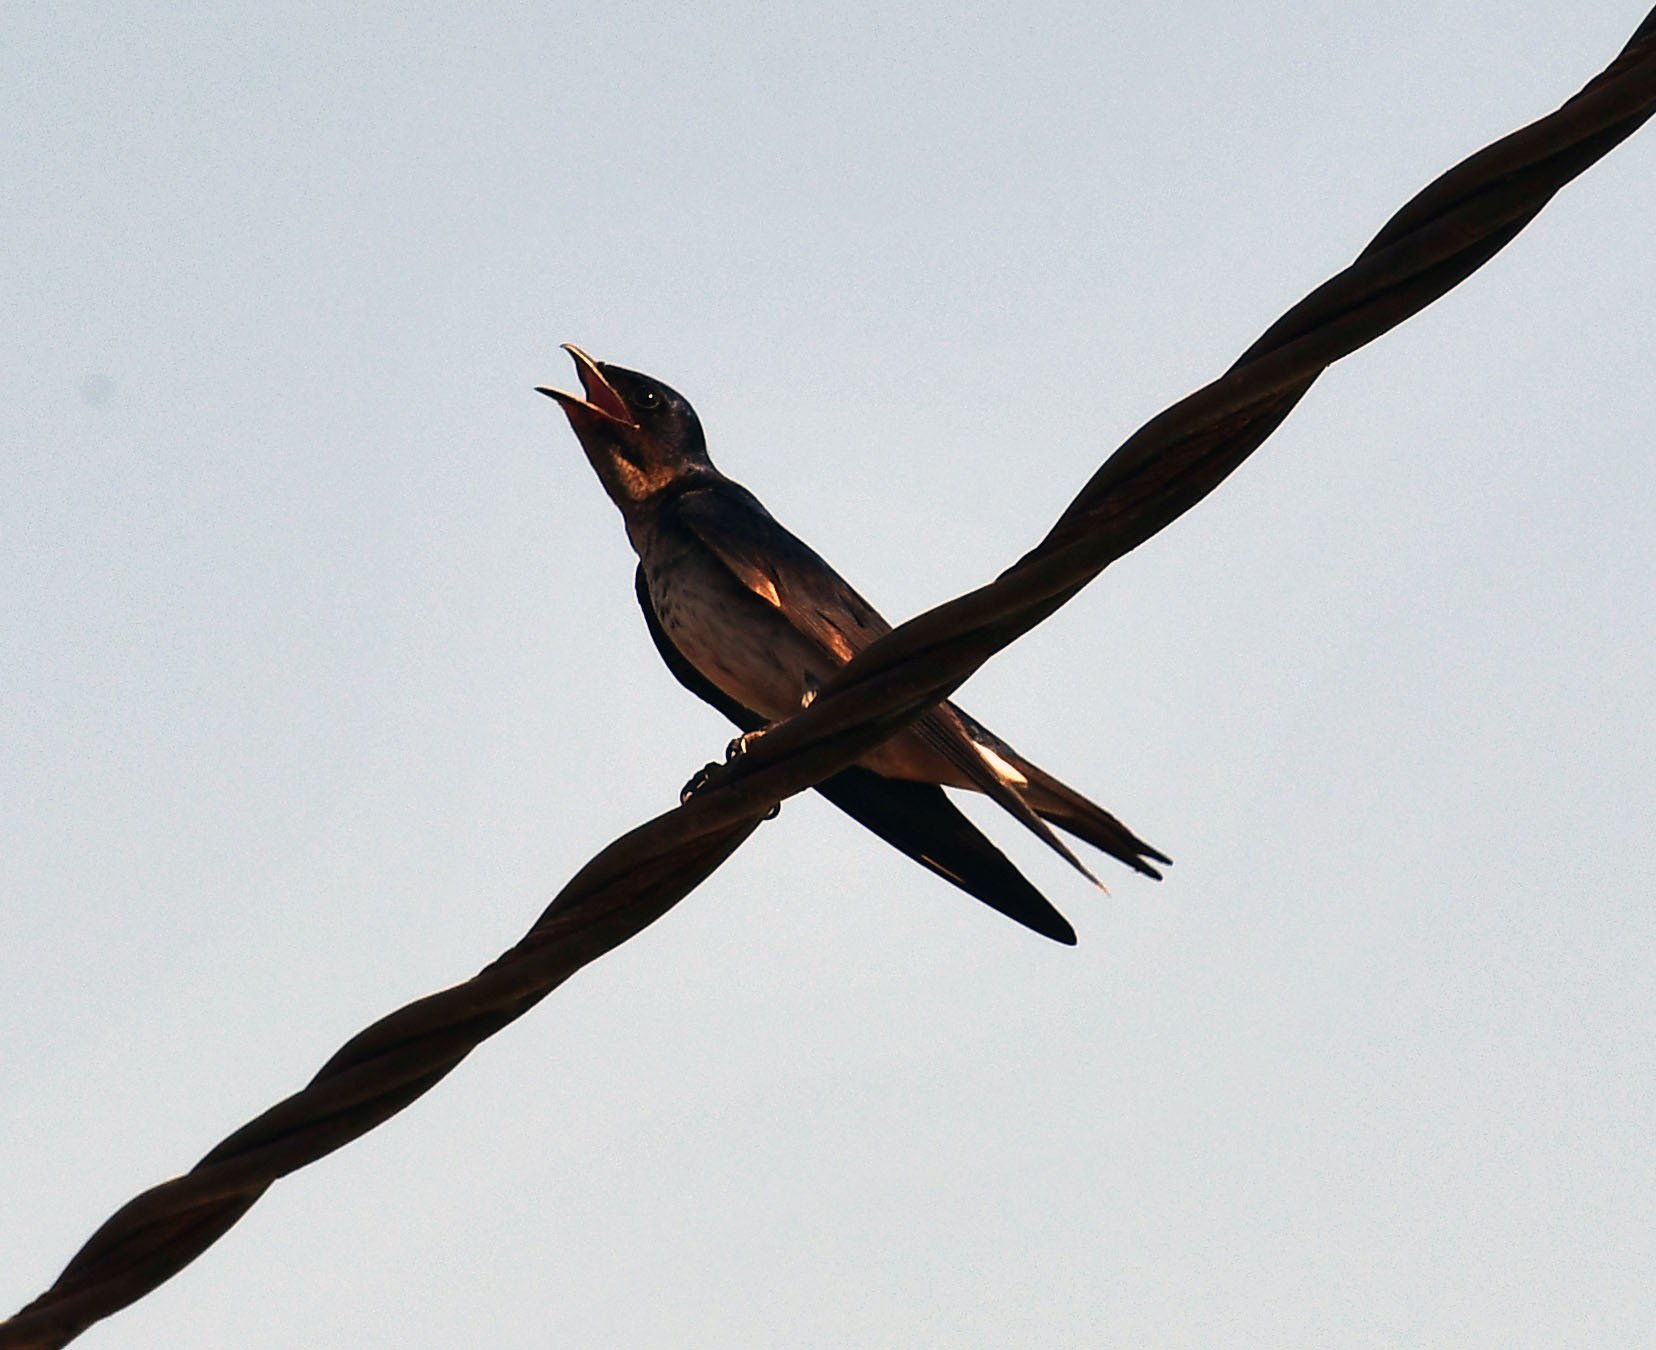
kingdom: Animalia
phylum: Chordata
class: Aves
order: Passeriformes
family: Hirundinidae
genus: Progne
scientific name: Progne chalybea
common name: Grey-breasted martin
